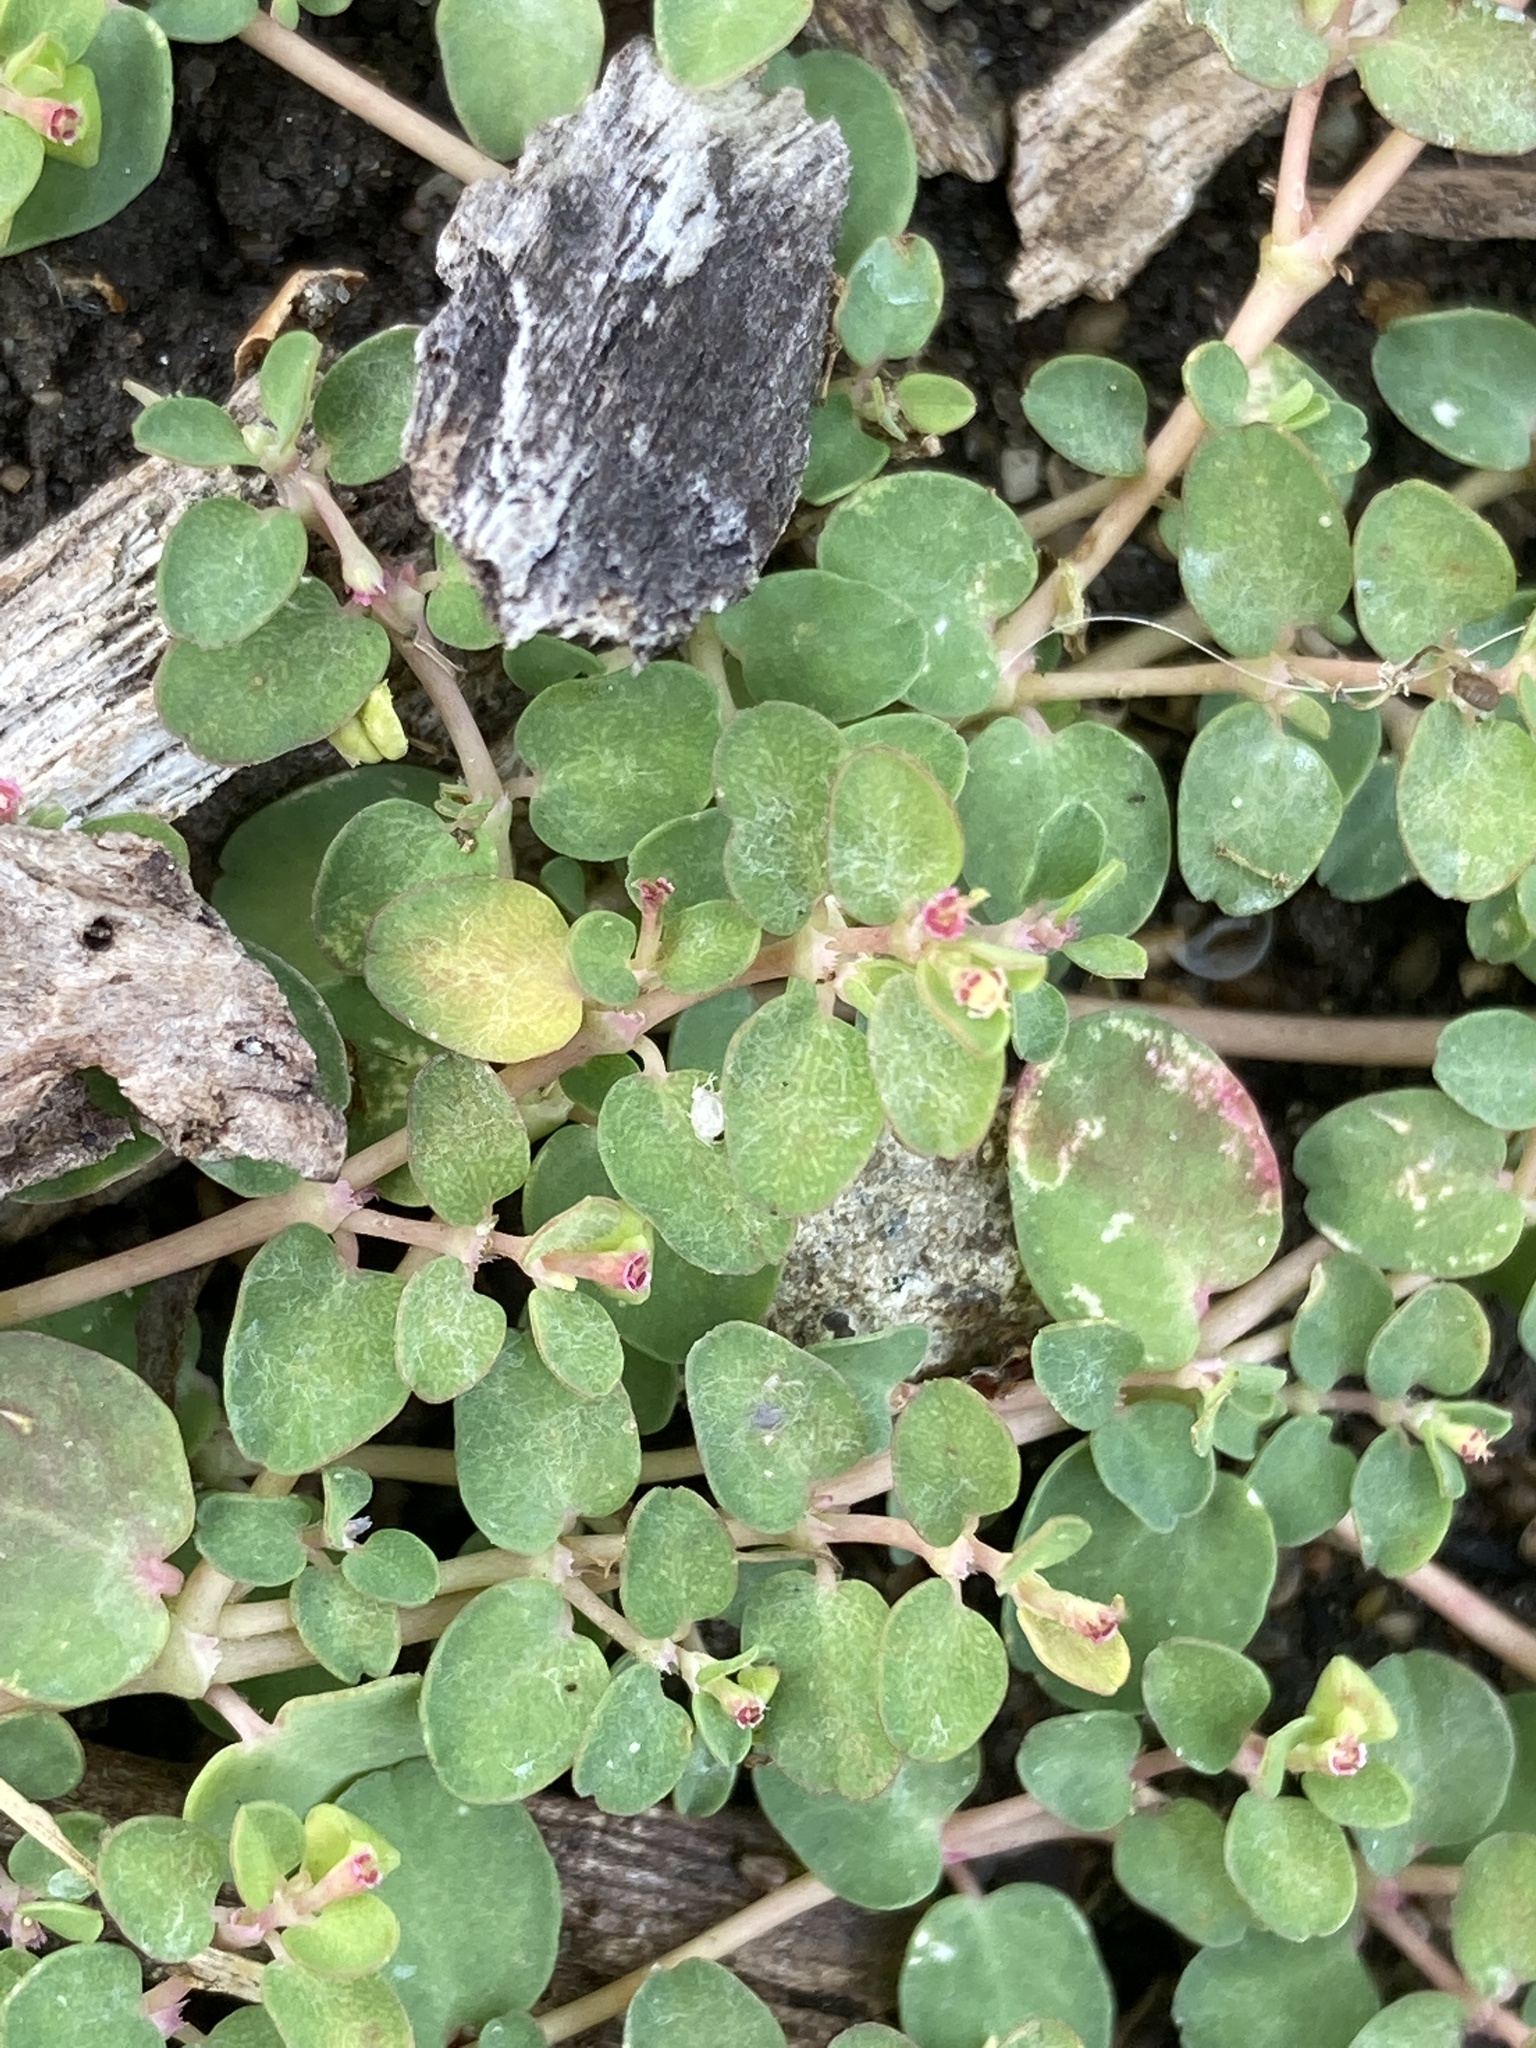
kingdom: Plantae
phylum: Tracheophyta
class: Magnoliopsida
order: Malpighiales
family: Euphorbiaceae
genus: Euphorbia
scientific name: Euphorbia serpens
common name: Matted sandmat
